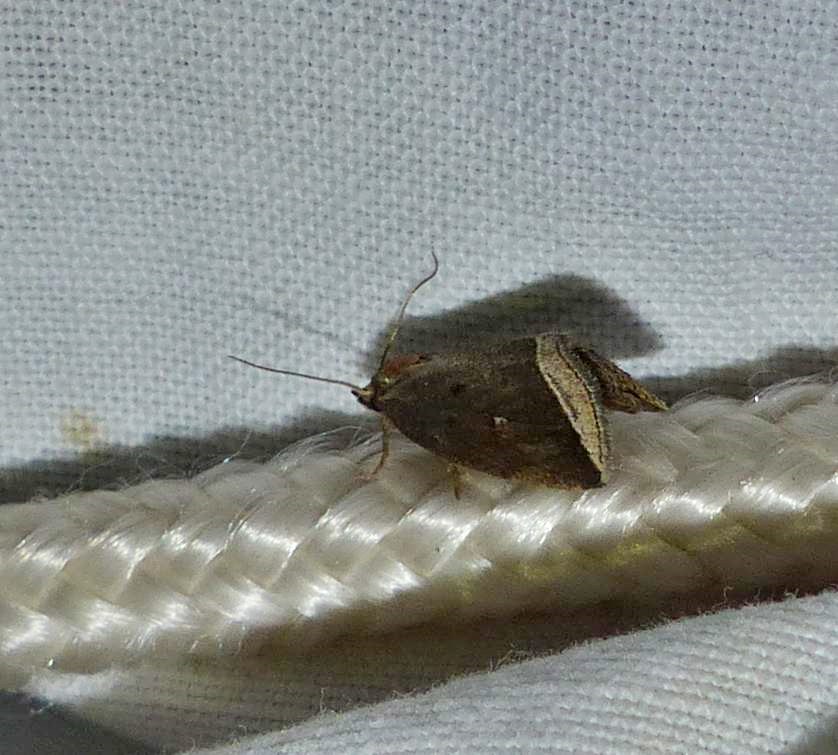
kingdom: Animalia
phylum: Arthropoda
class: Insecta
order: Lepidoptera
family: Erebidae
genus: Capis
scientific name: Capis curvata
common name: Curved halter moth
